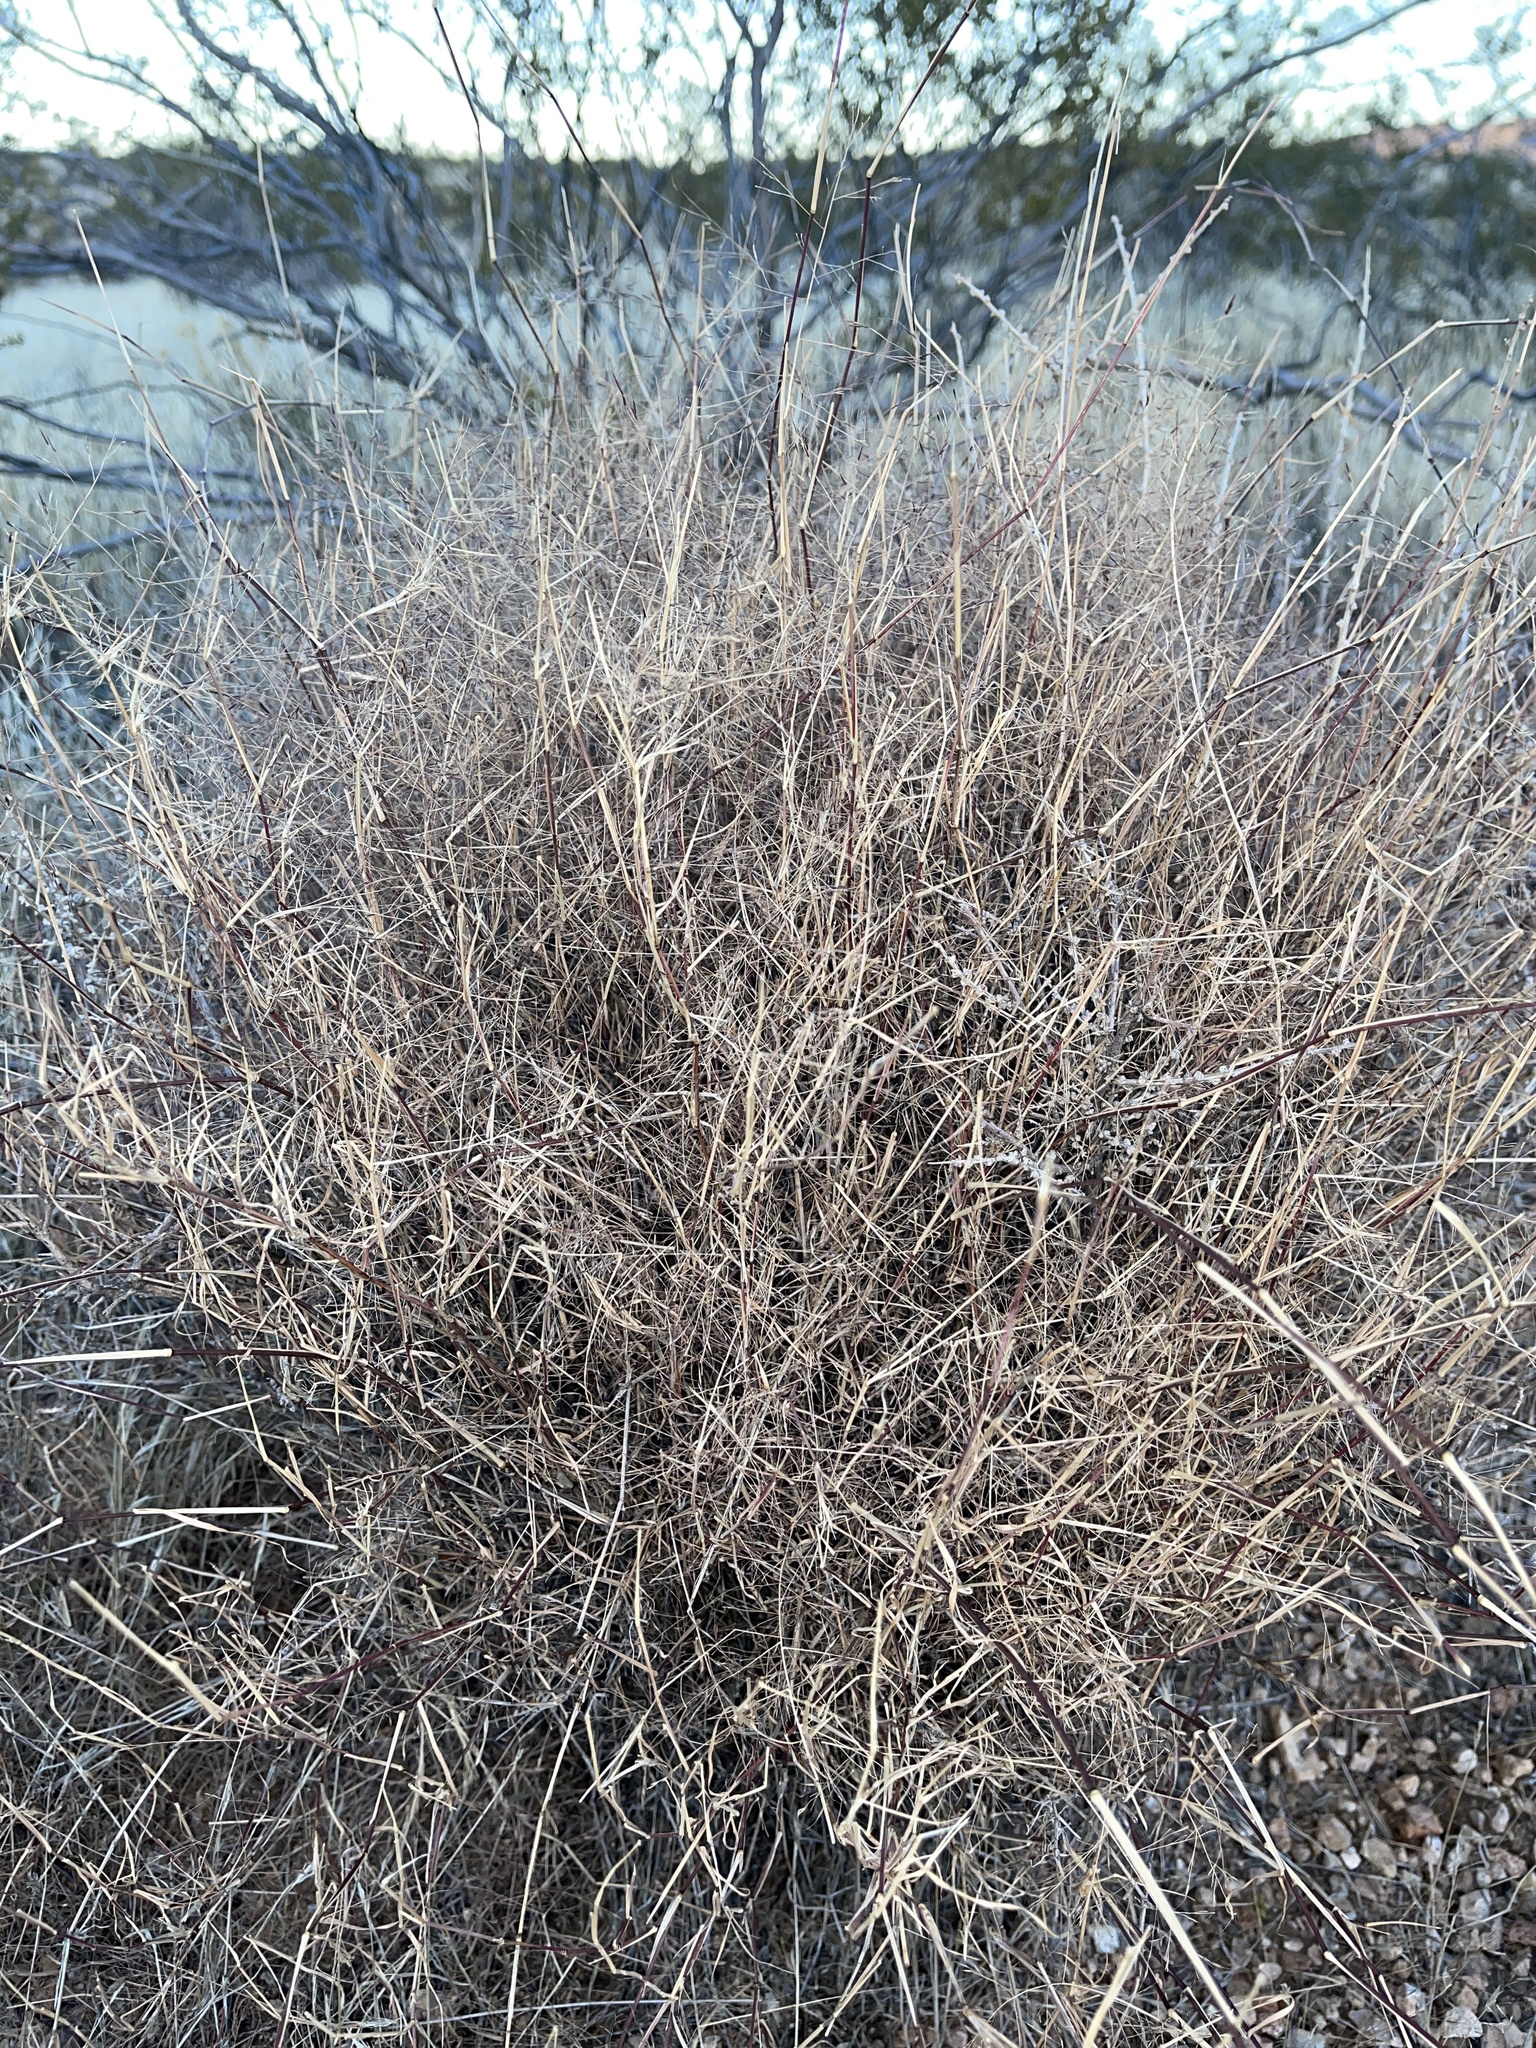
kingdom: Plantae
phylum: Tracheophyta
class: Liliopsida
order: Poales
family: Poaceae
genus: Muhlenbergia
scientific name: Muhlenbergia porteri
